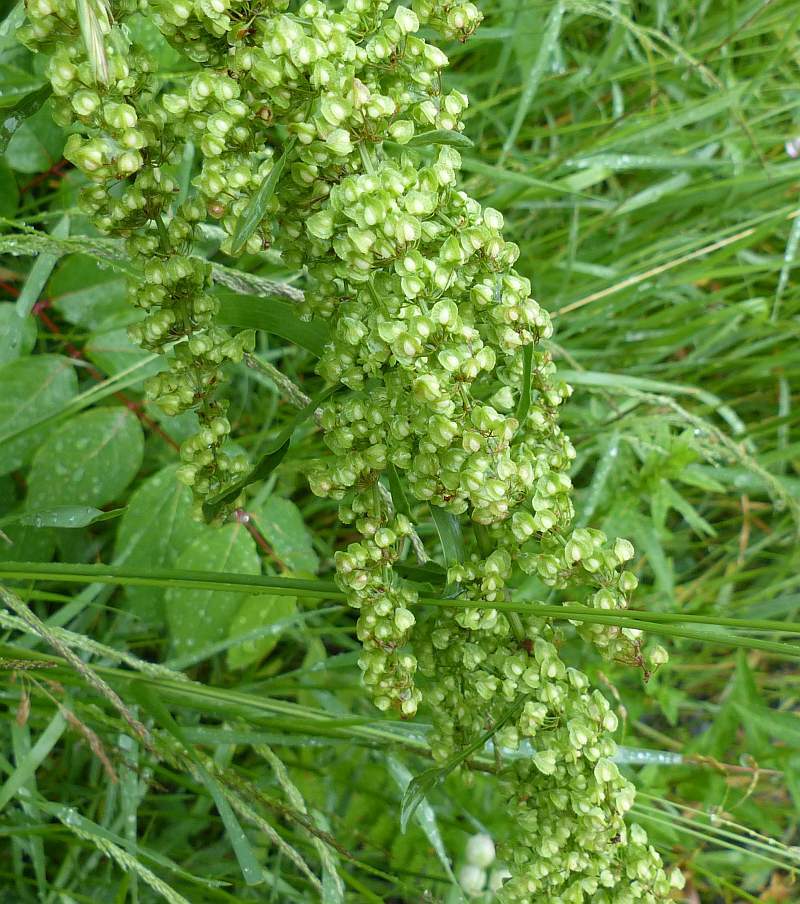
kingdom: Plantae
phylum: Tracheophyta
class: Magnoliopsida
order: Caryophyllales
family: Polygonaceae
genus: Rumex
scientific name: Rumex crispus
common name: Curled dock
